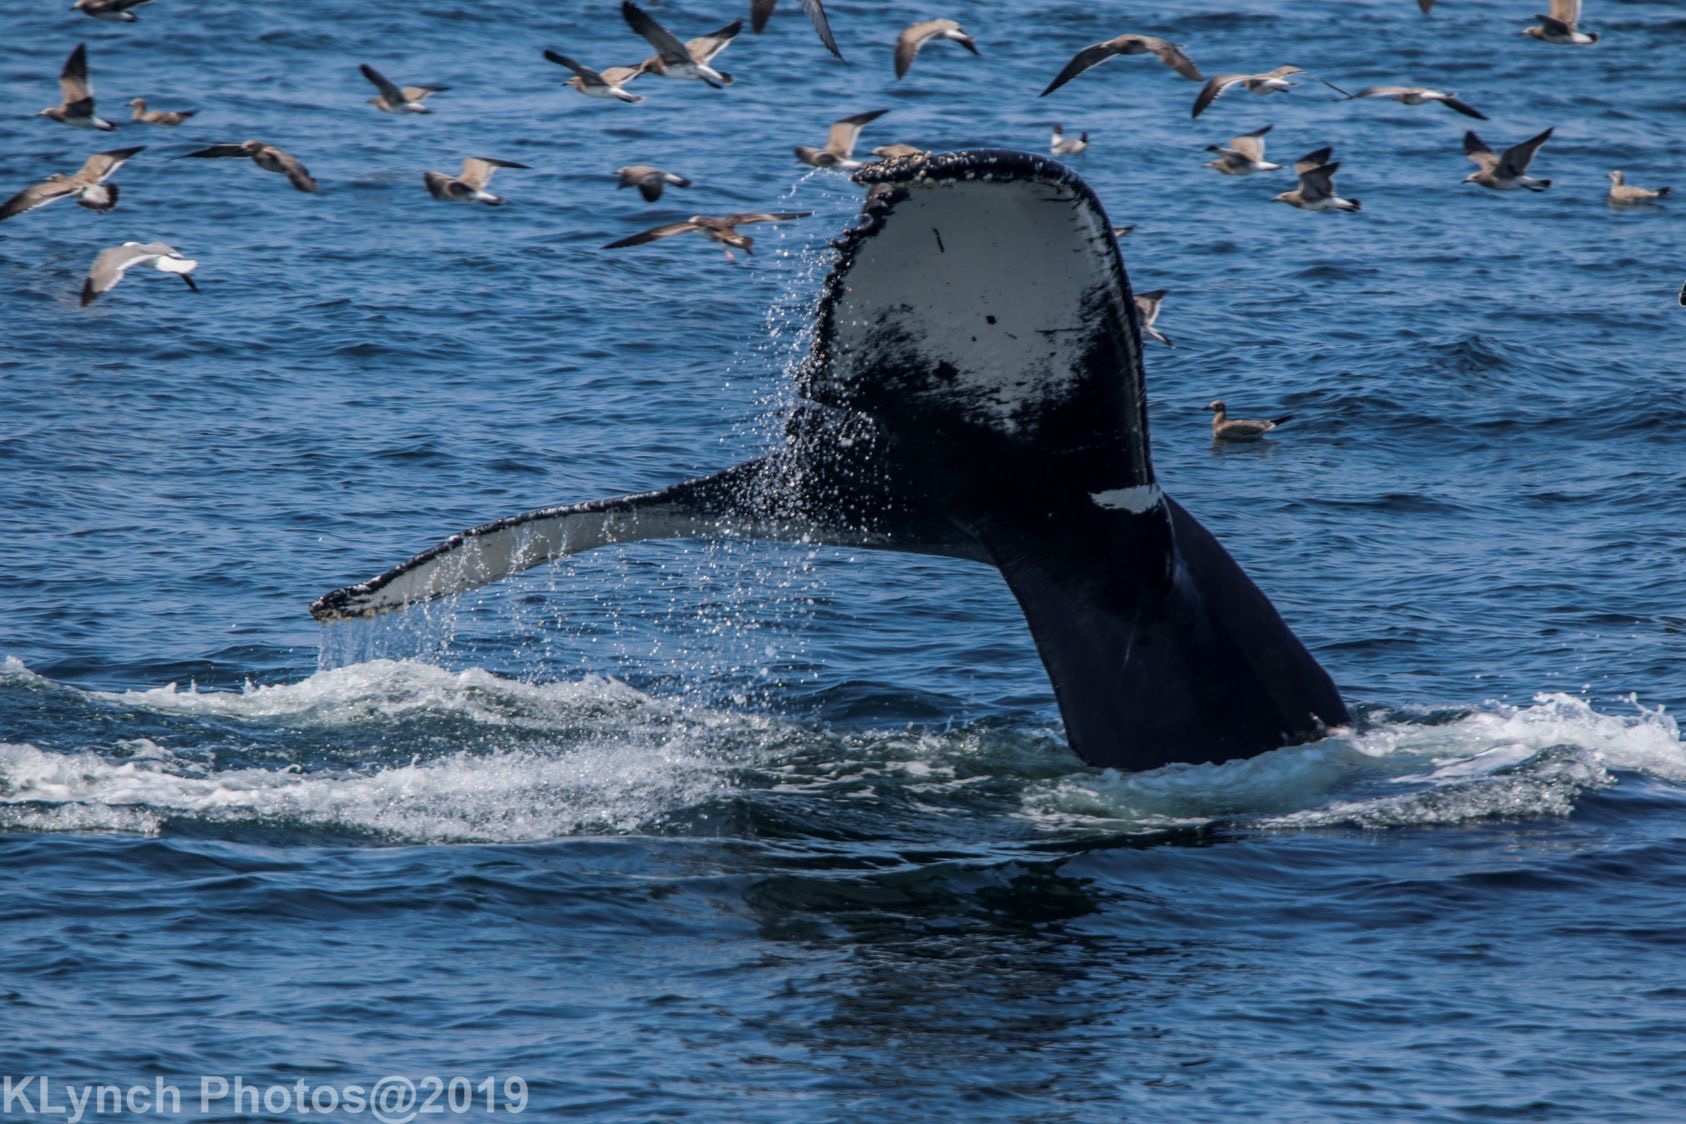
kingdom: Animalia
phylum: Chordata
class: Mammalia
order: Cetacea
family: Balaenopteridae
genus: Megaptera
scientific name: Megaptera novaeangliae
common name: Humpback whale
